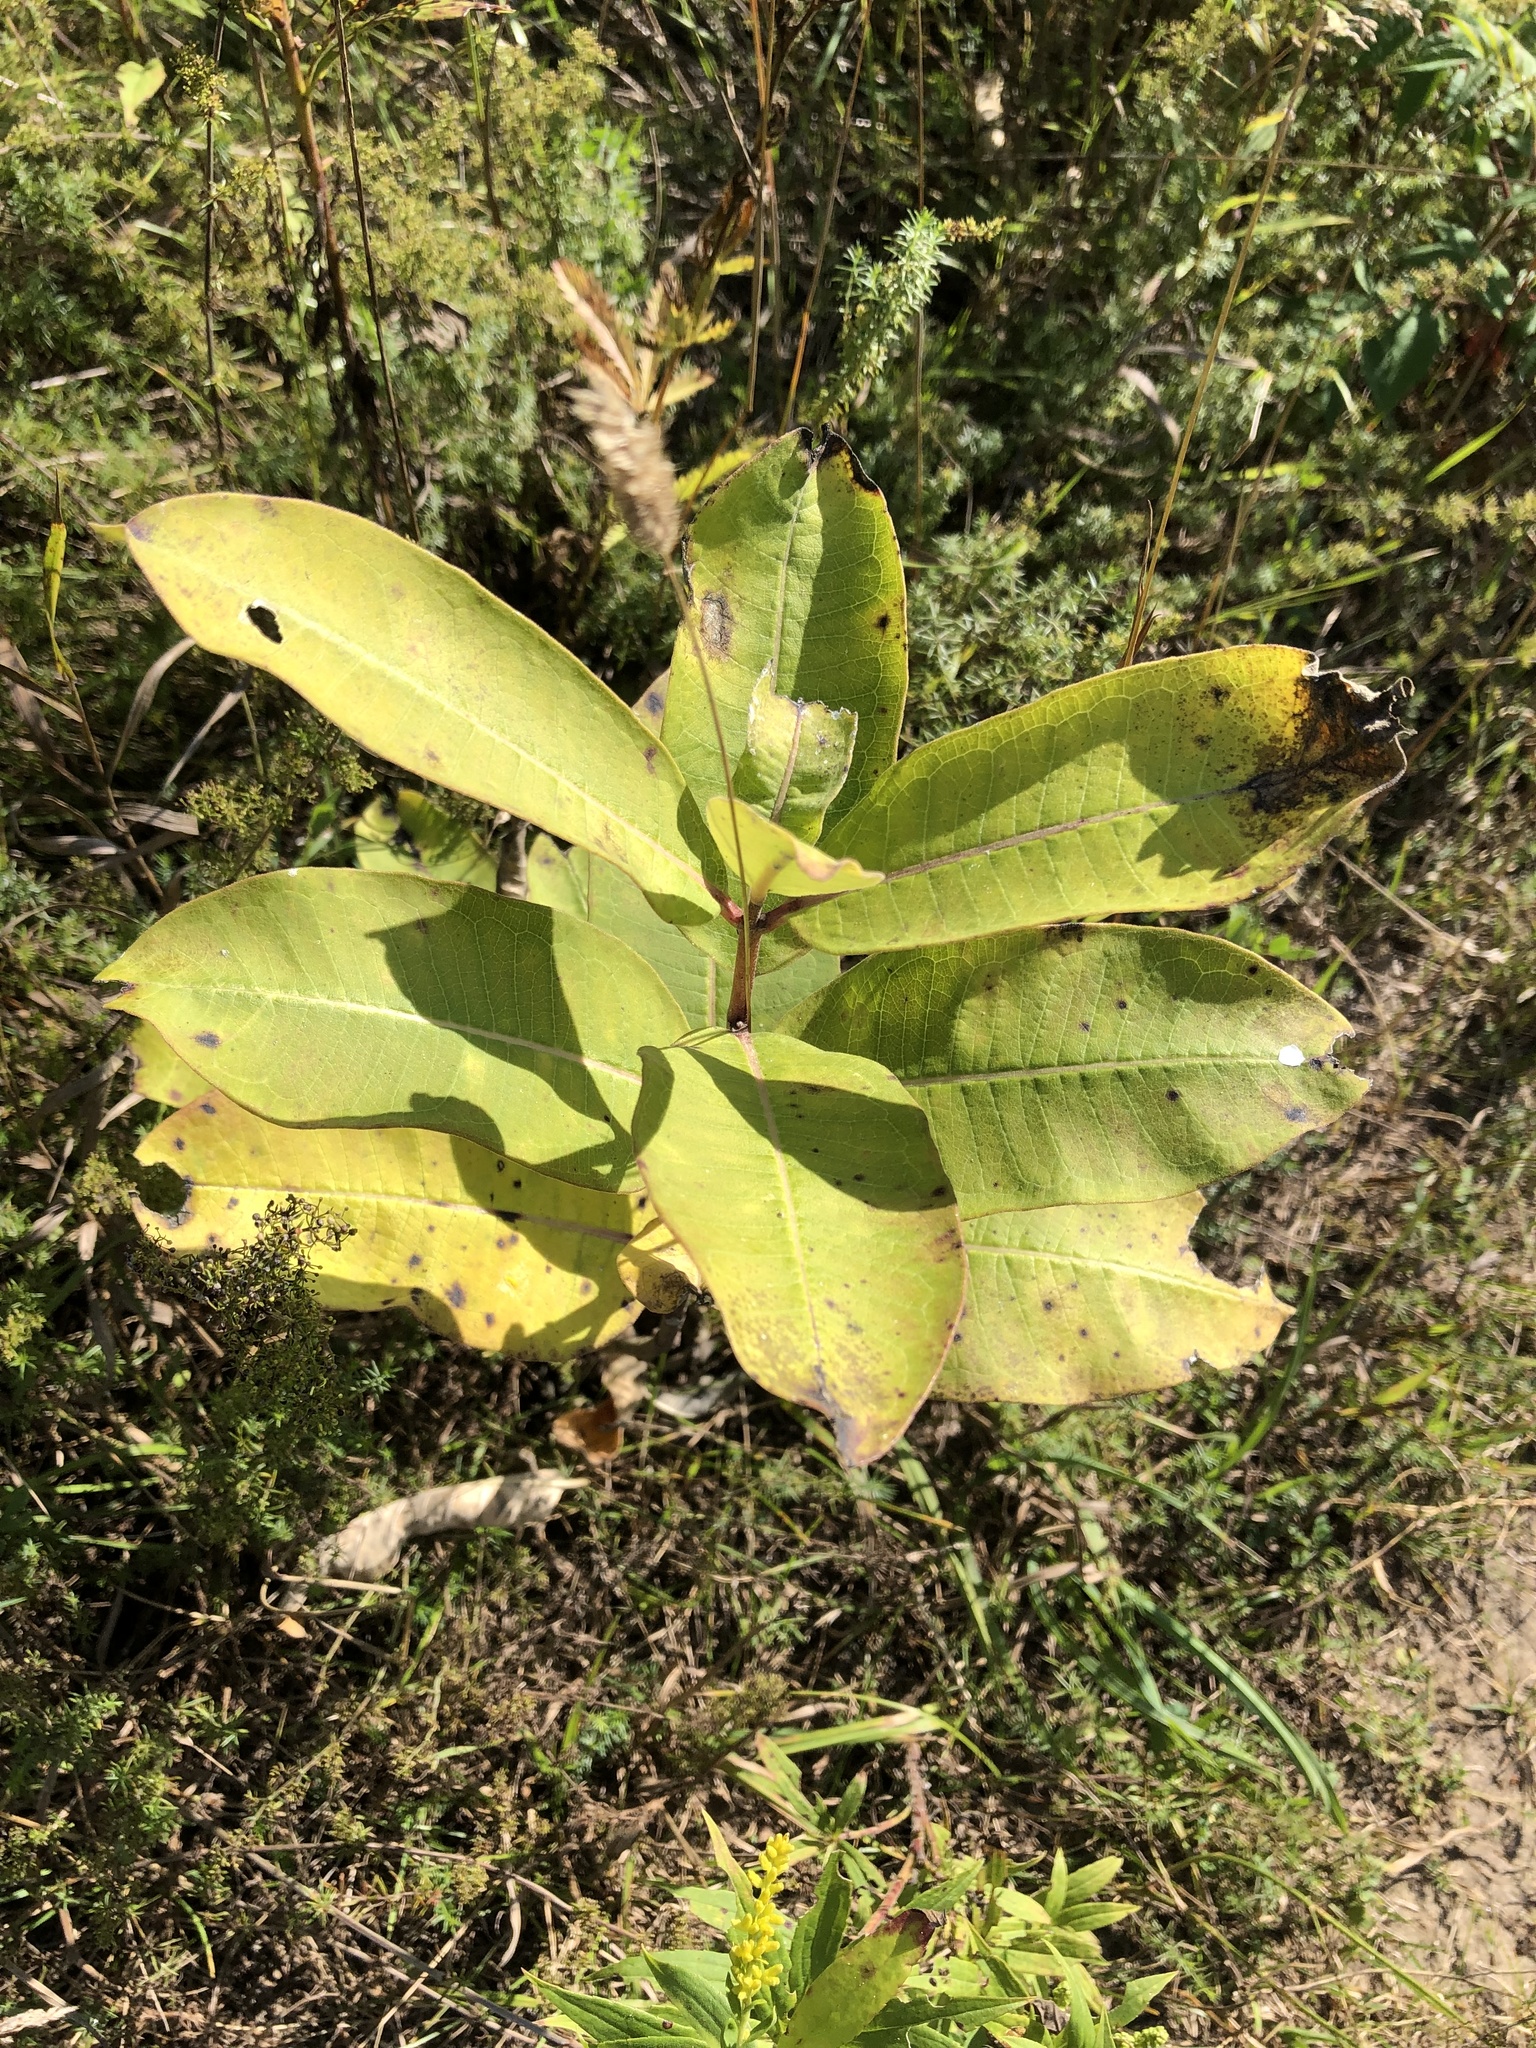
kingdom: Plantae
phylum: Tracheophyta
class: Magnoliopsida
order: Gentianales
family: Apocynaceae
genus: Asclepias
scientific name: Asclepias syriaca
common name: Common milkweed
